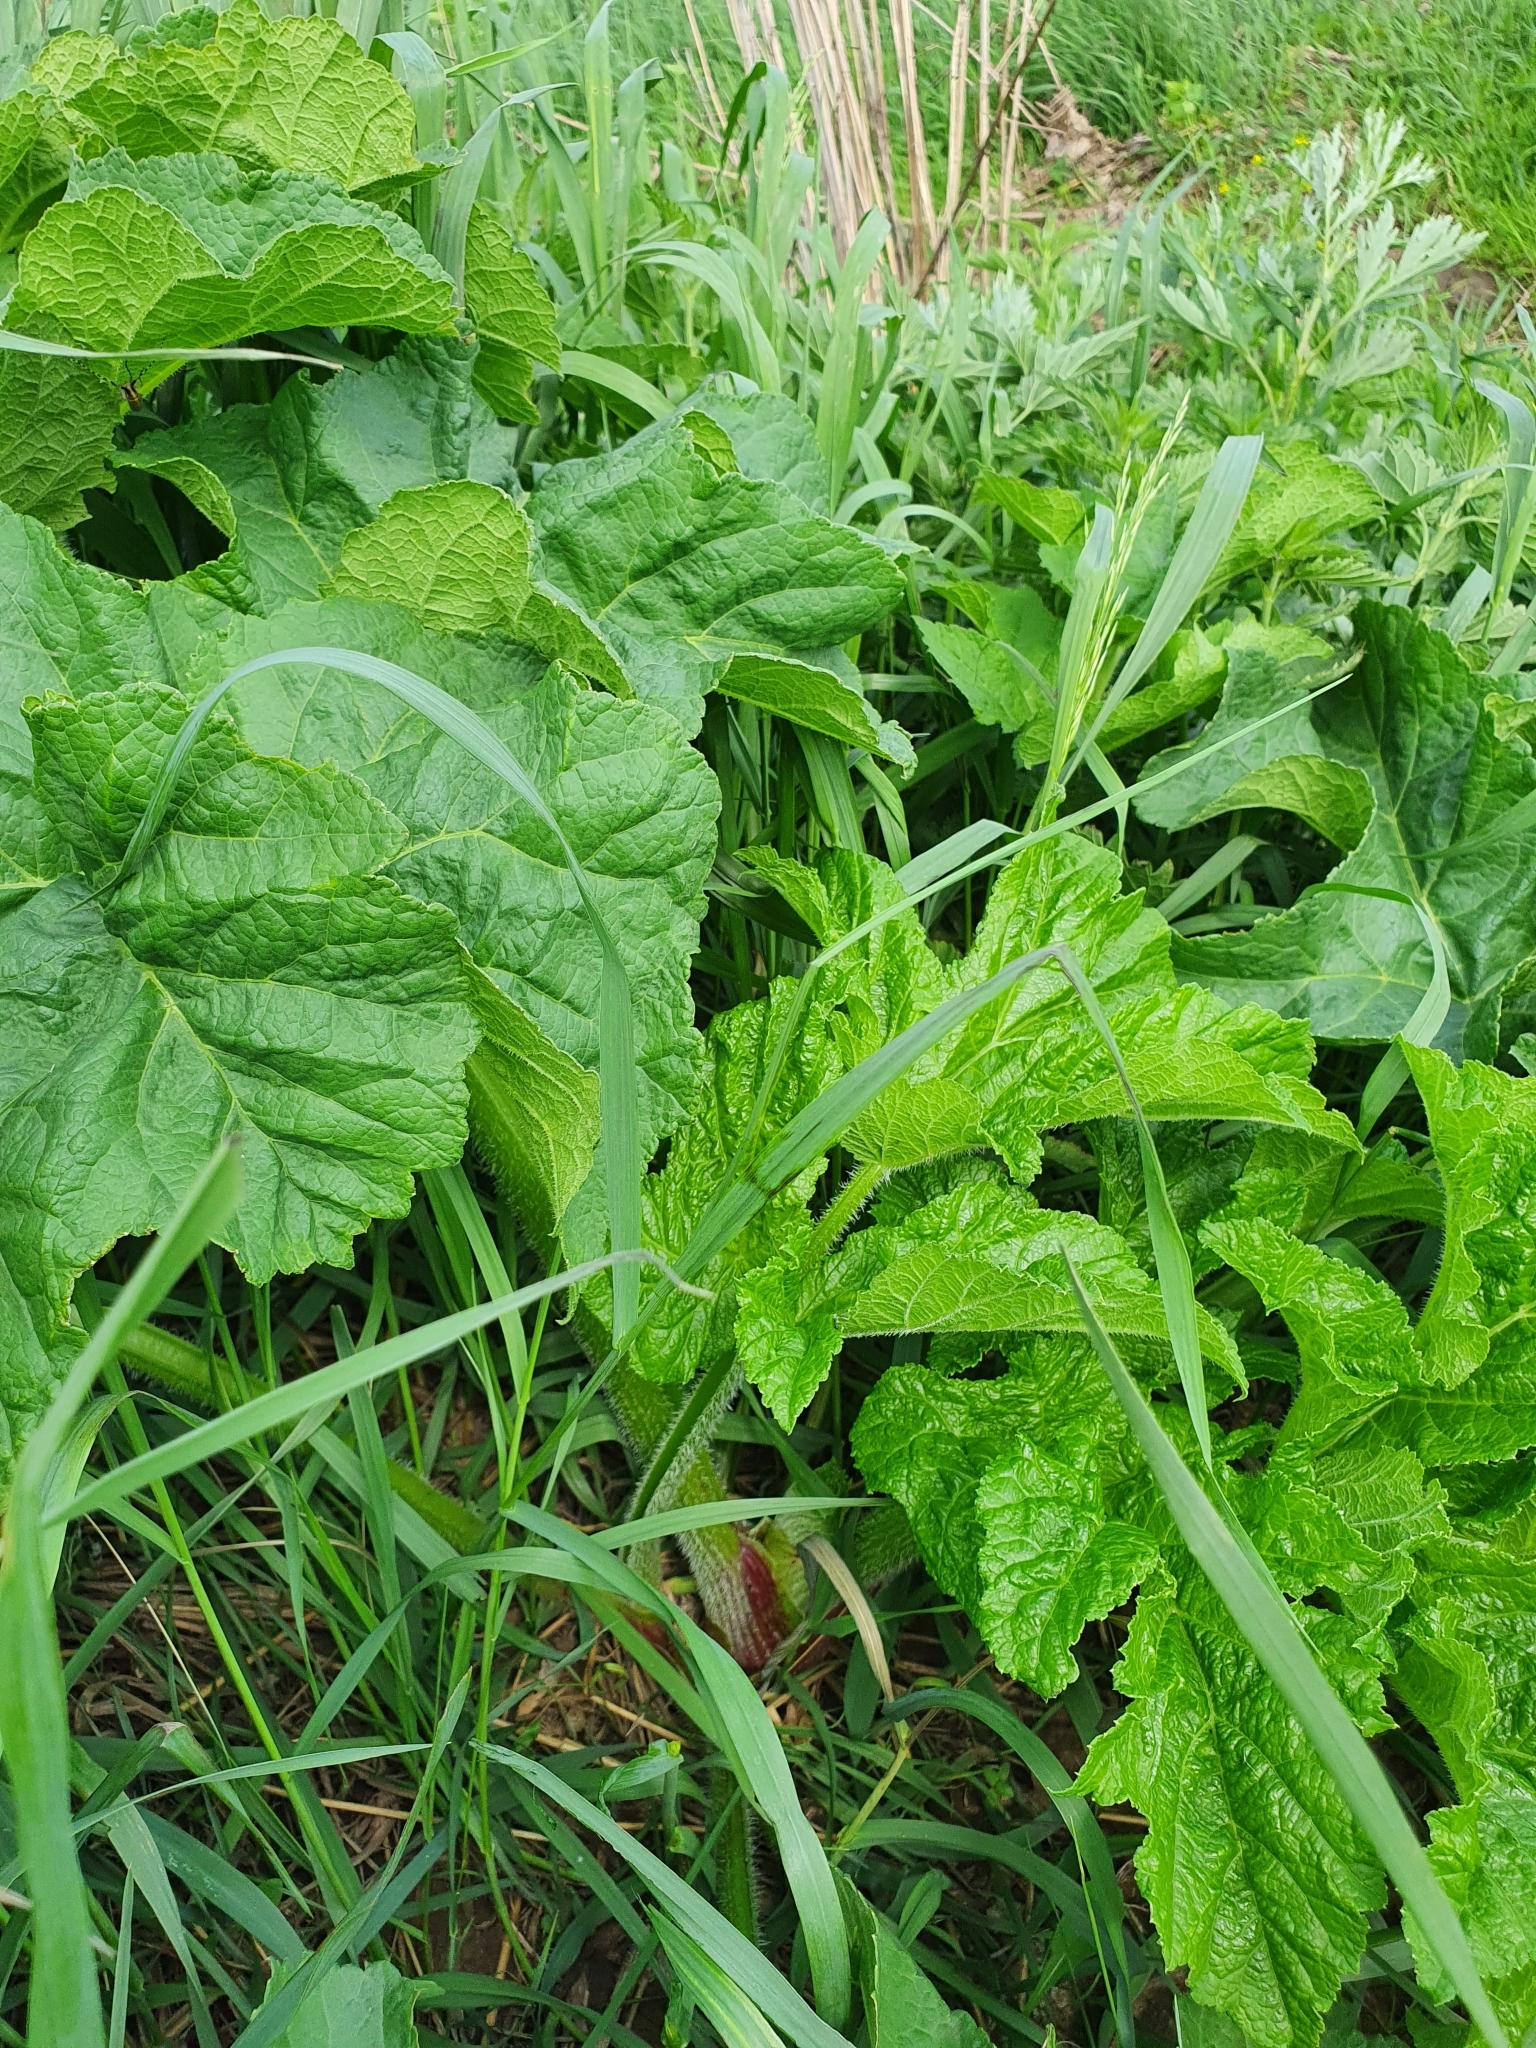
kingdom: Plantae
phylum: Tracheophyta
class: Magnoliopsida
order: Apiales
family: Apiaceae
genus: Heracleum
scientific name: Heracleum sphondylium
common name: Hogweed
